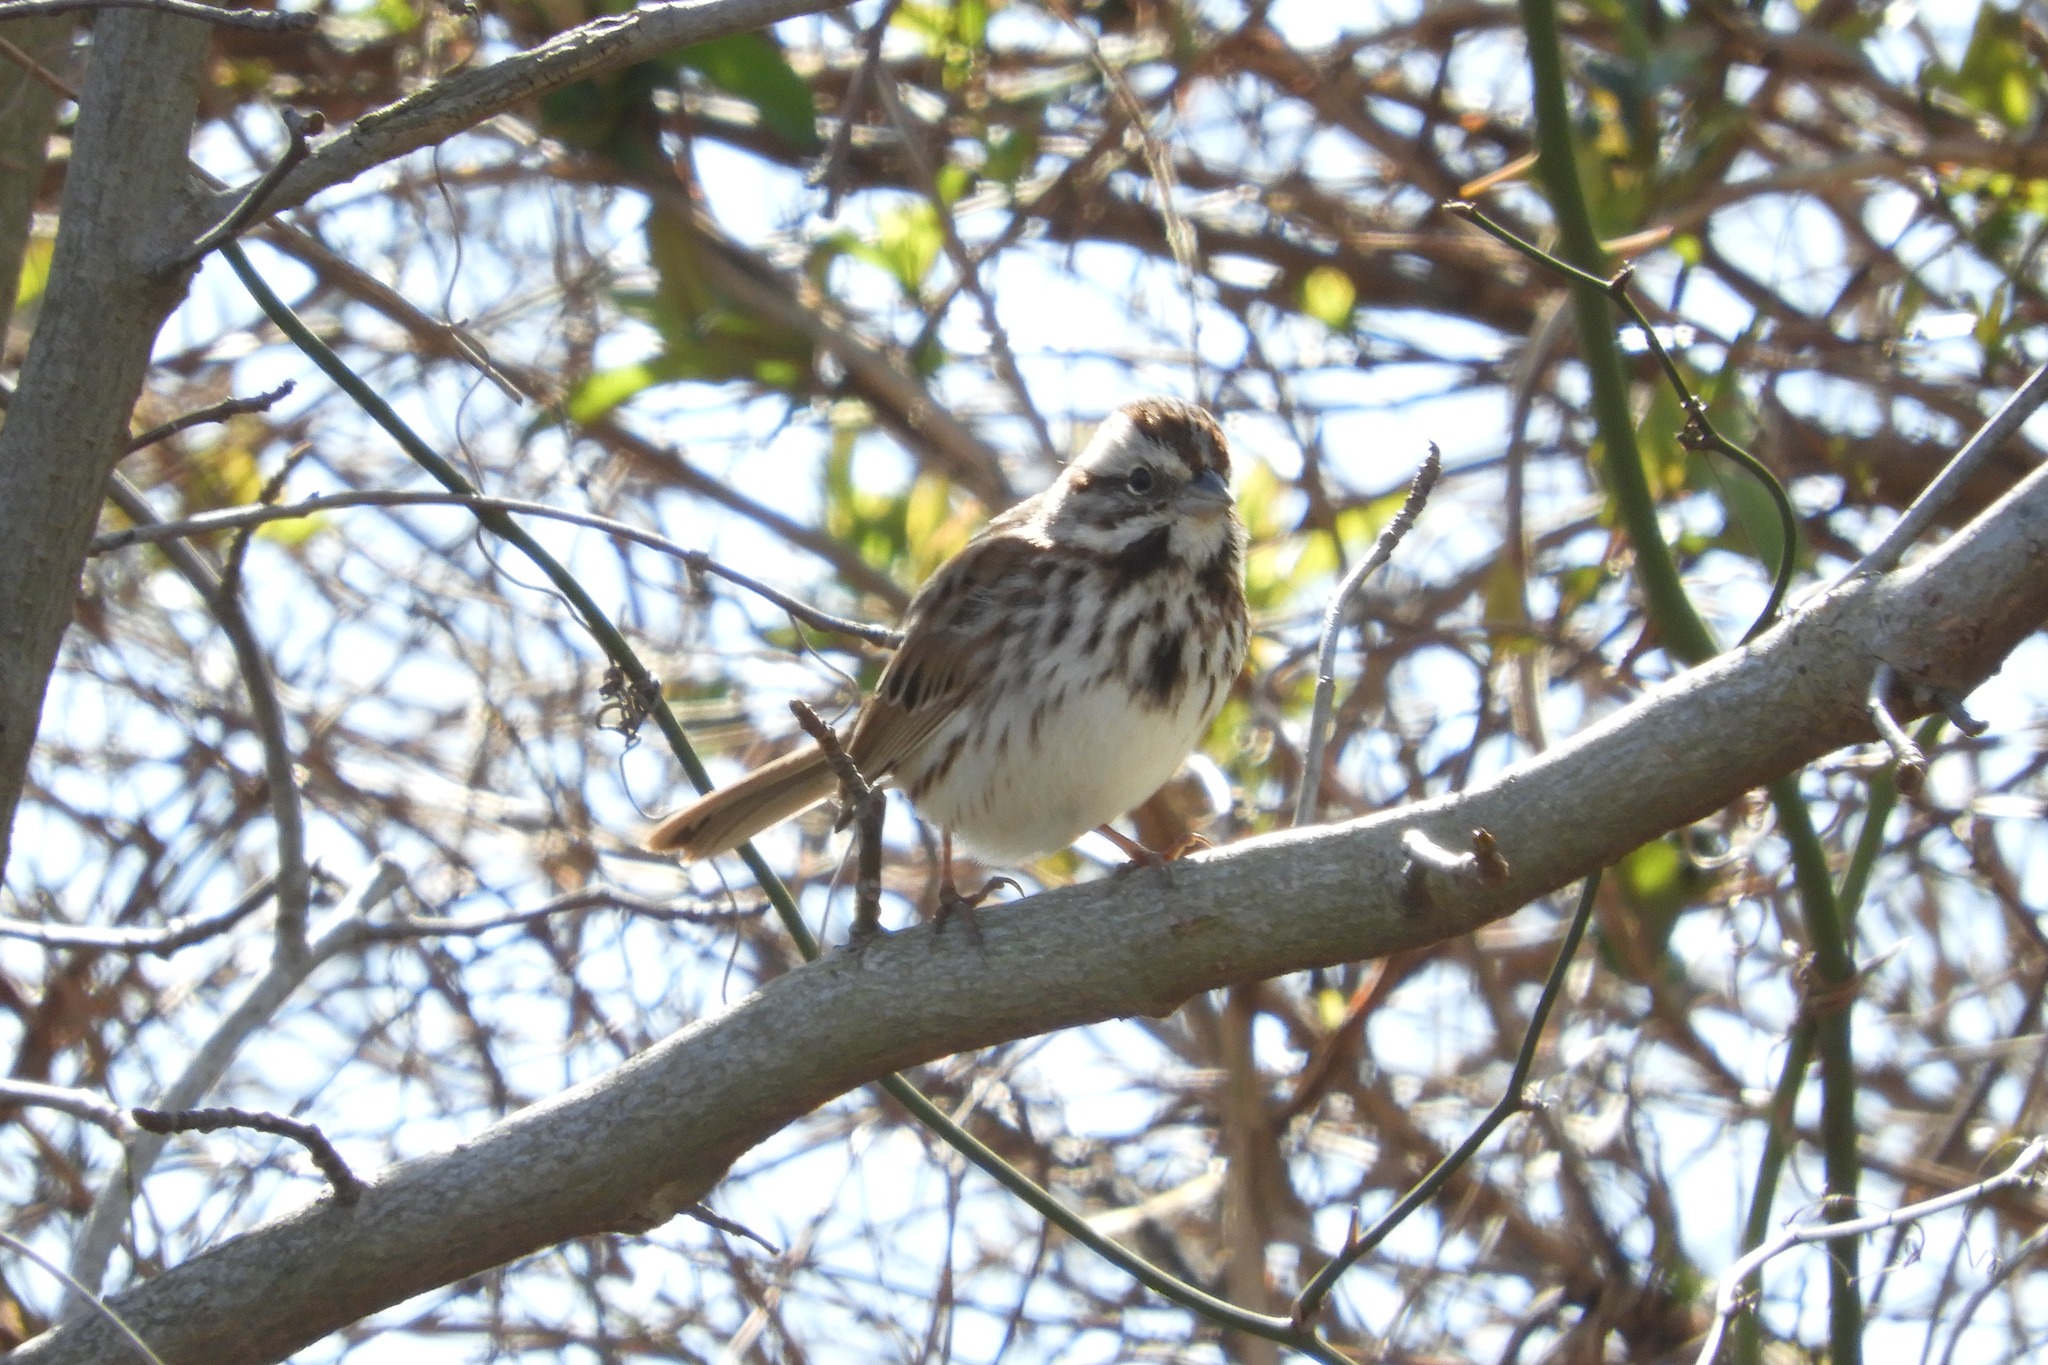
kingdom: Animalia
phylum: Chordata
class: Aves
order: Passeriformes
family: Passerellidae
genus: Melospiza
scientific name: Melospiza melodia
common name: Song sparrow
